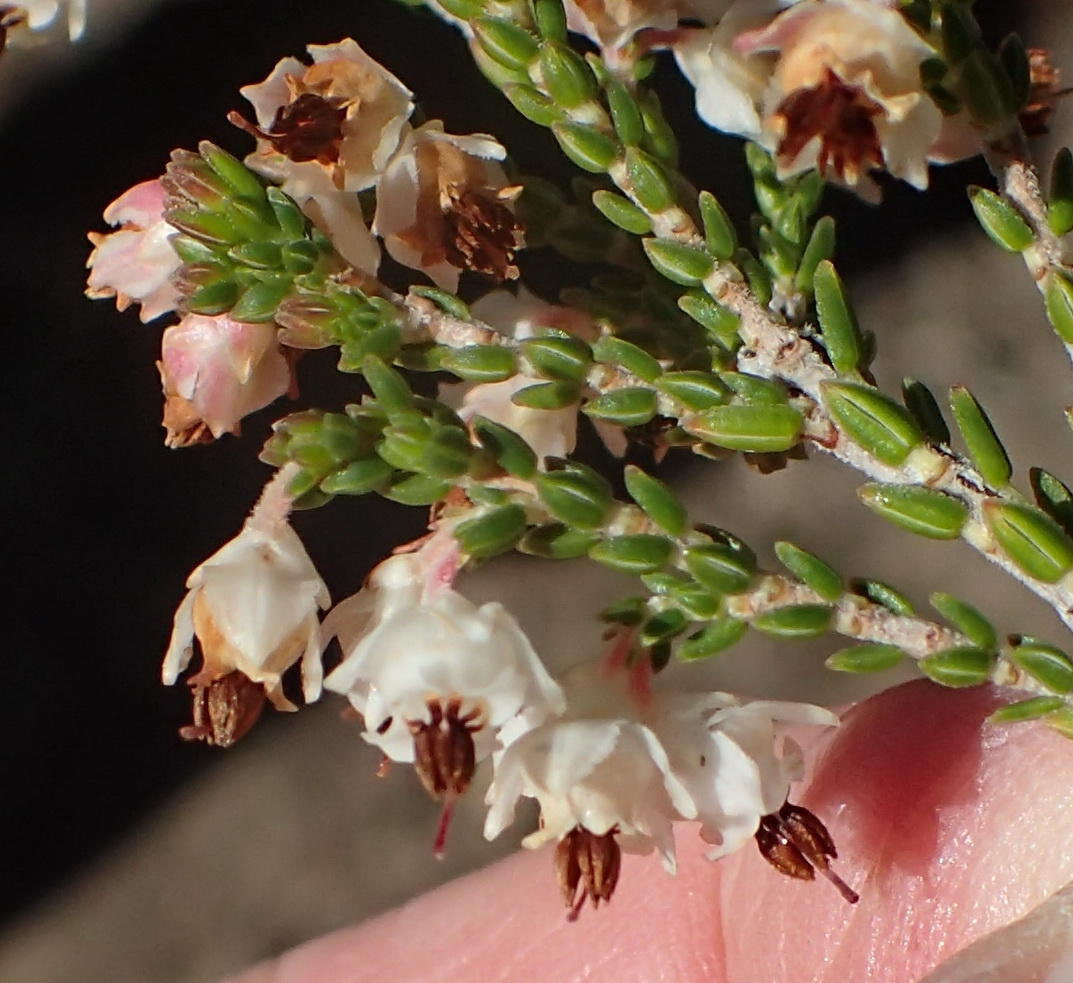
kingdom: Plantae
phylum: Tracheophyta
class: Magnoliopsida
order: Ericales
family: Ericaceae
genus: Erica
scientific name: Erica triceps
